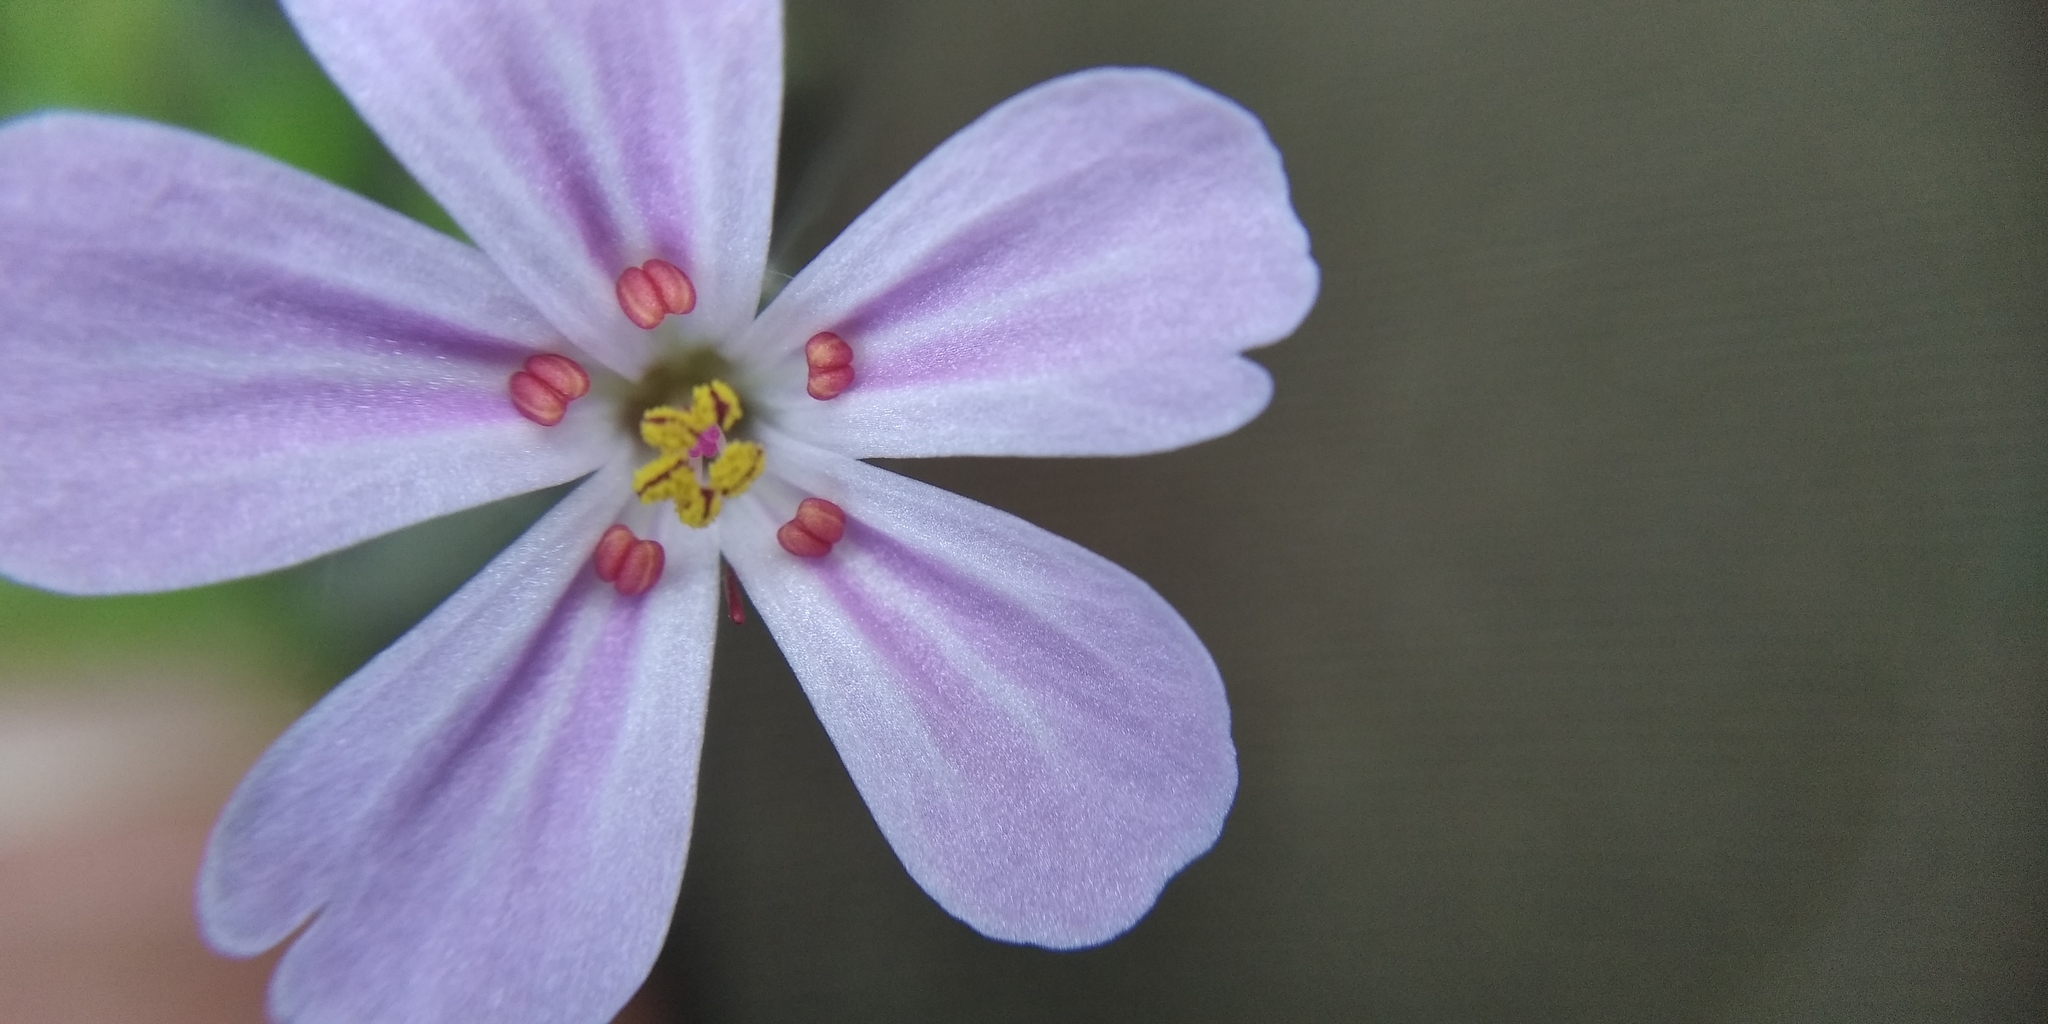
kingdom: Plantae
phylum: Tracheophyta
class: Magnoliopsida
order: Geraniales
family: Geraniaceae
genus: Geranium
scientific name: Geranium robertianum
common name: Herb-robert
